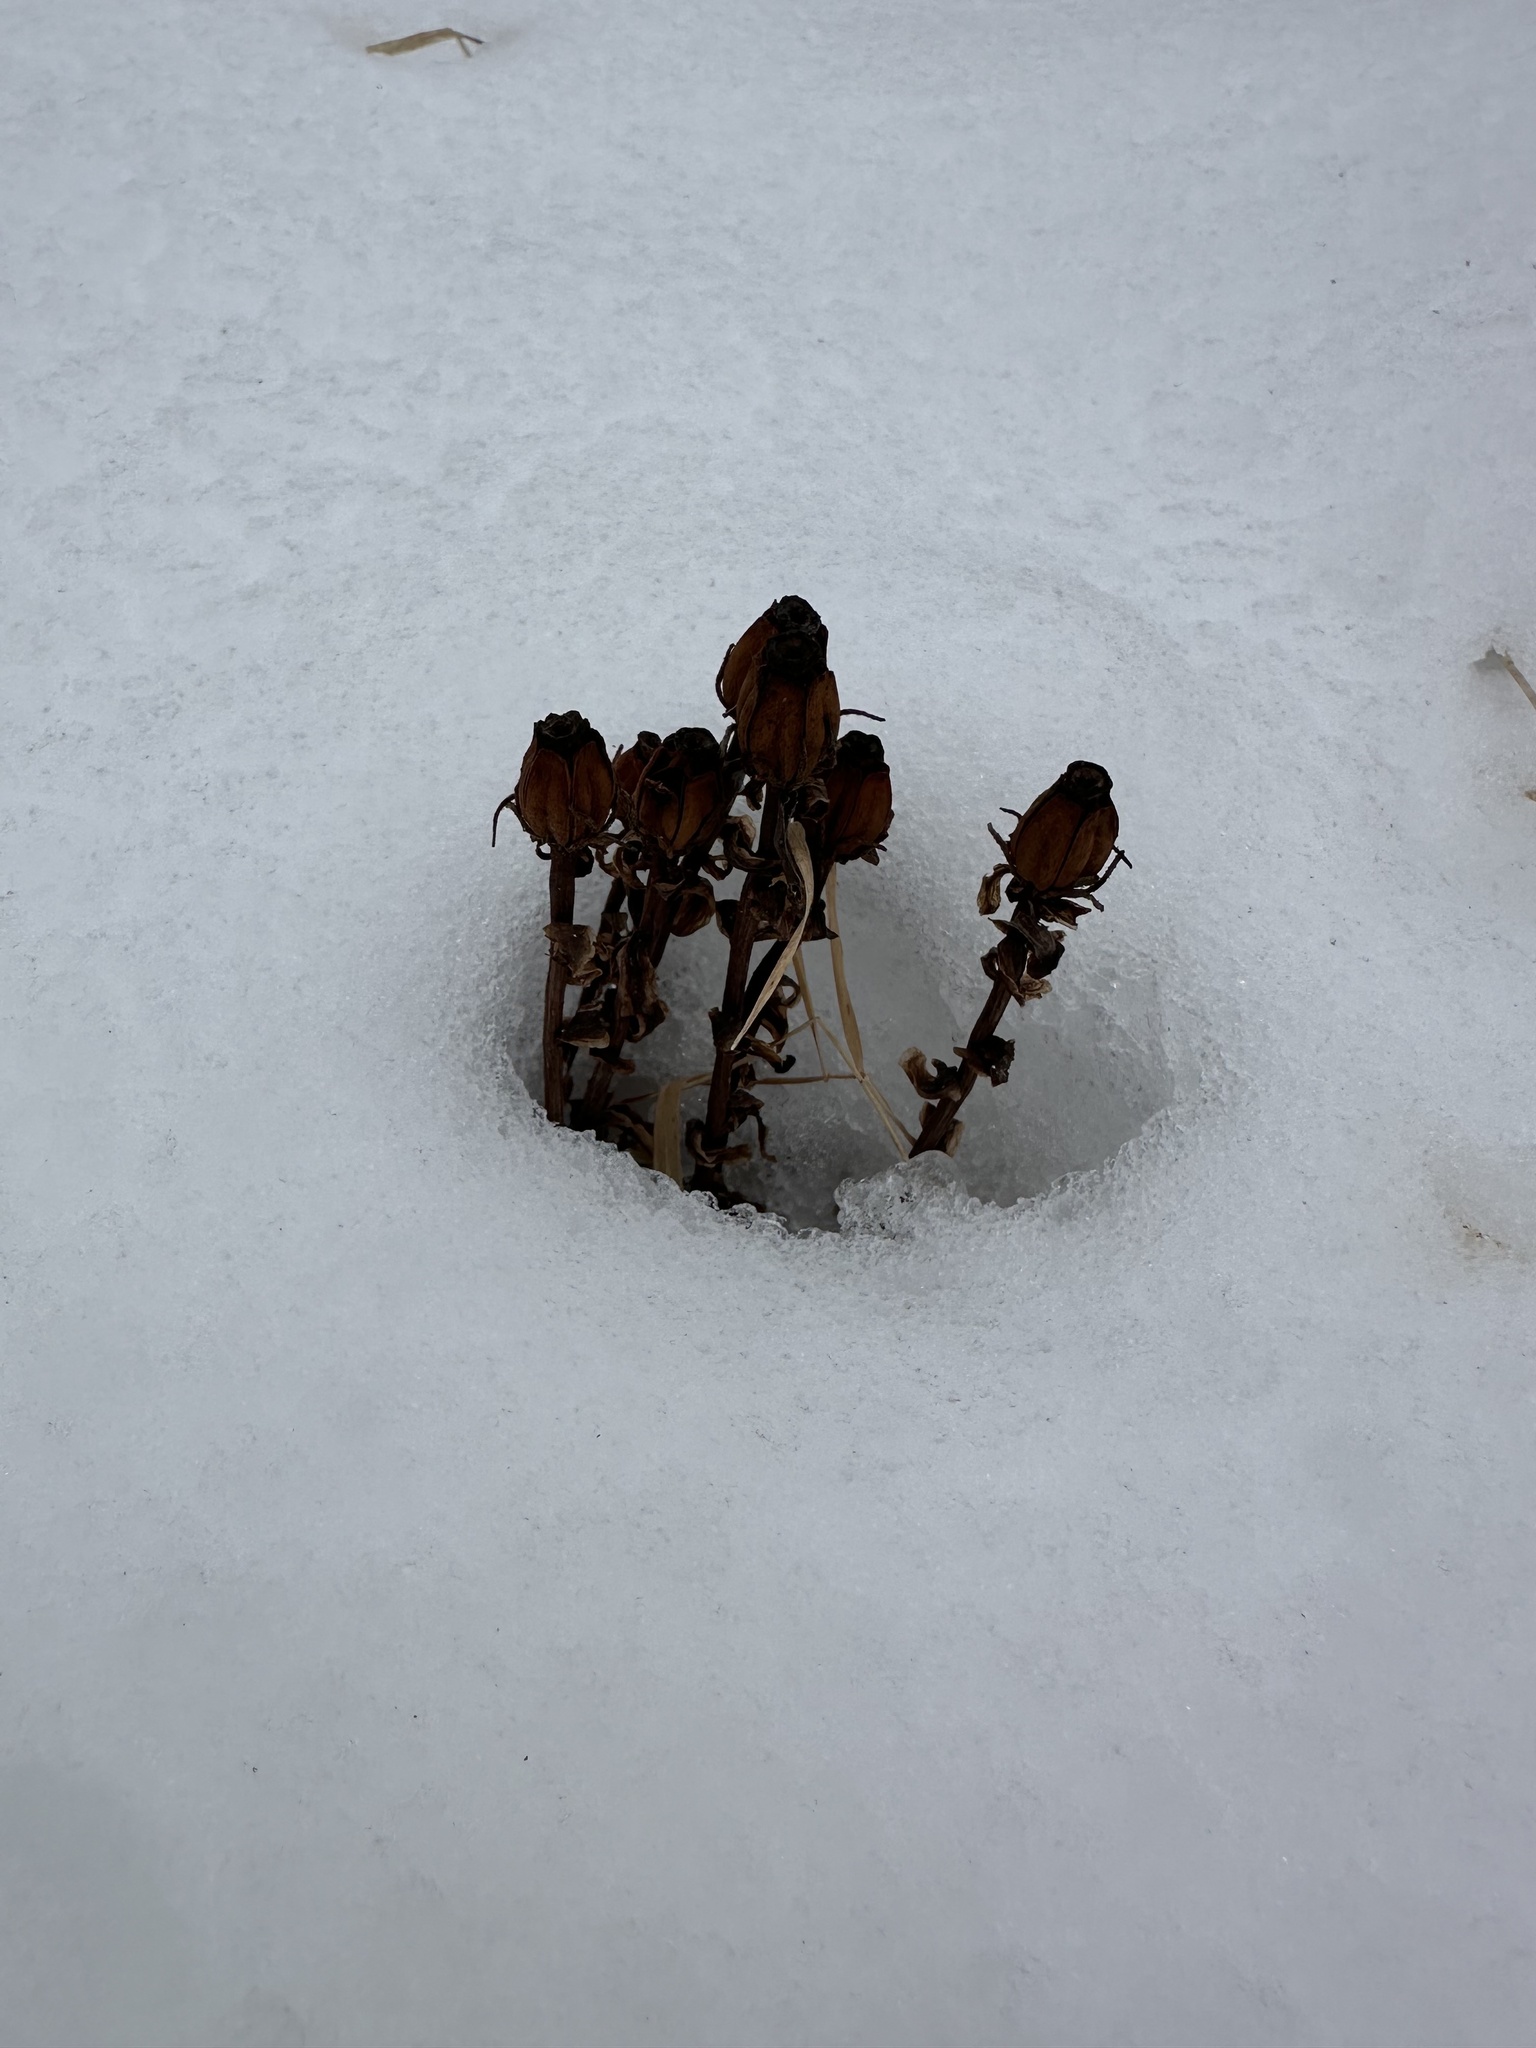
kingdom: Plantae
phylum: Tracheophyta
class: Magnoliopsida
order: Ericales
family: Ericaceae
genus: Monotropa
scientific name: Monotropa uniflora
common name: Convulsion root
